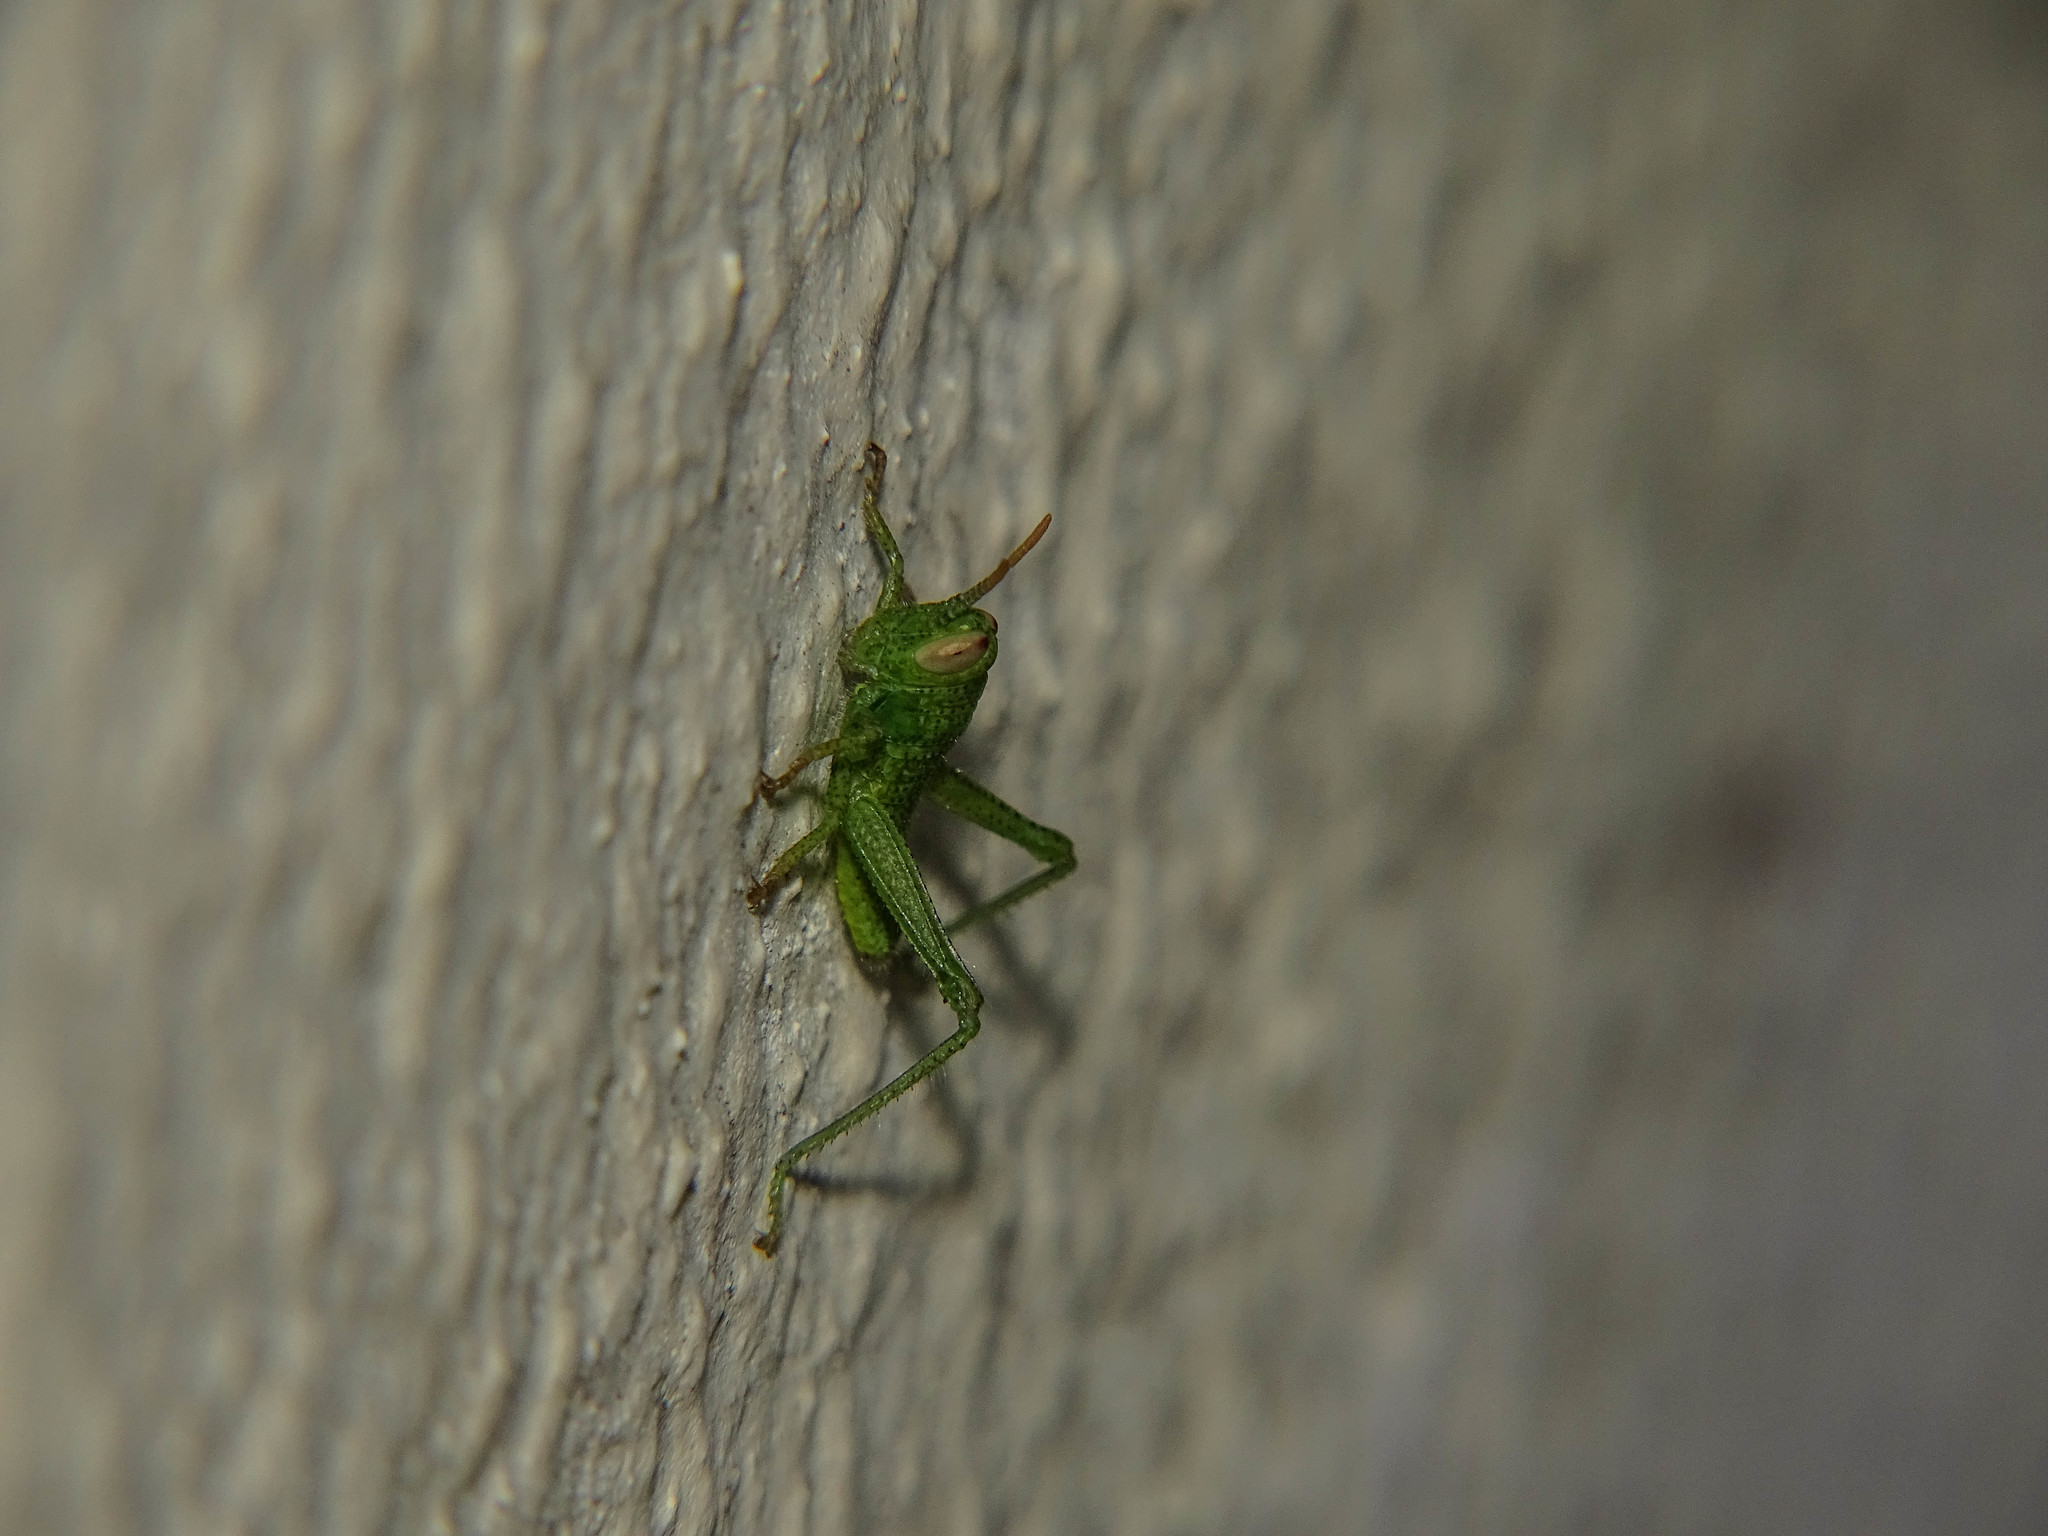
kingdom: Animalia
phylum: Arthropoda
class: Insecta
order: Orthoptera
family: Acrididae
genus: Anacridium
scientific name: Anacridium aegyptium
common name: Egyptian grasshopper
